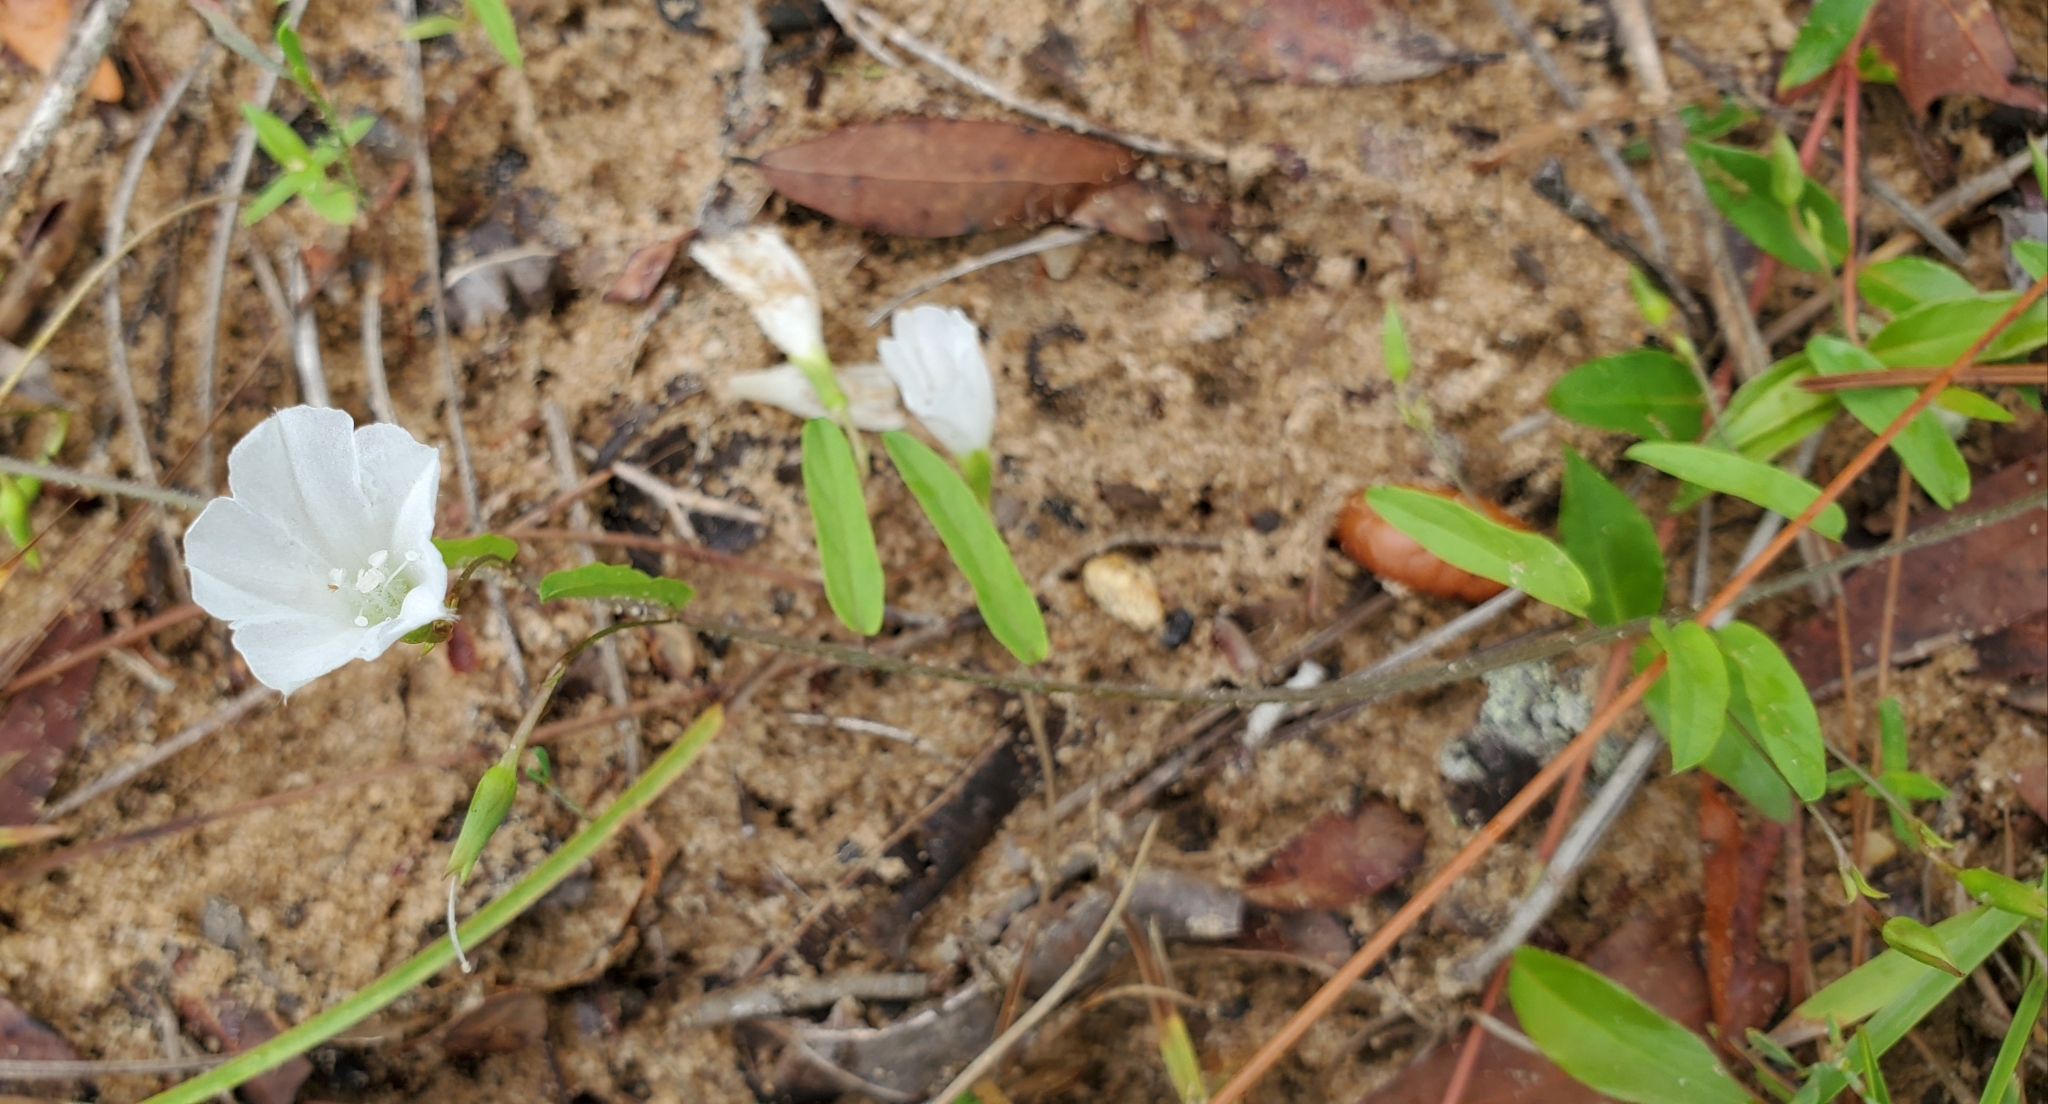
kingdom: Plantae
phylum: Tracheophyta
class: Magnoliopsida
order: Solanales
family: Convolvulaceae
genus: Stylisma
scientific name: Stylisma patens
